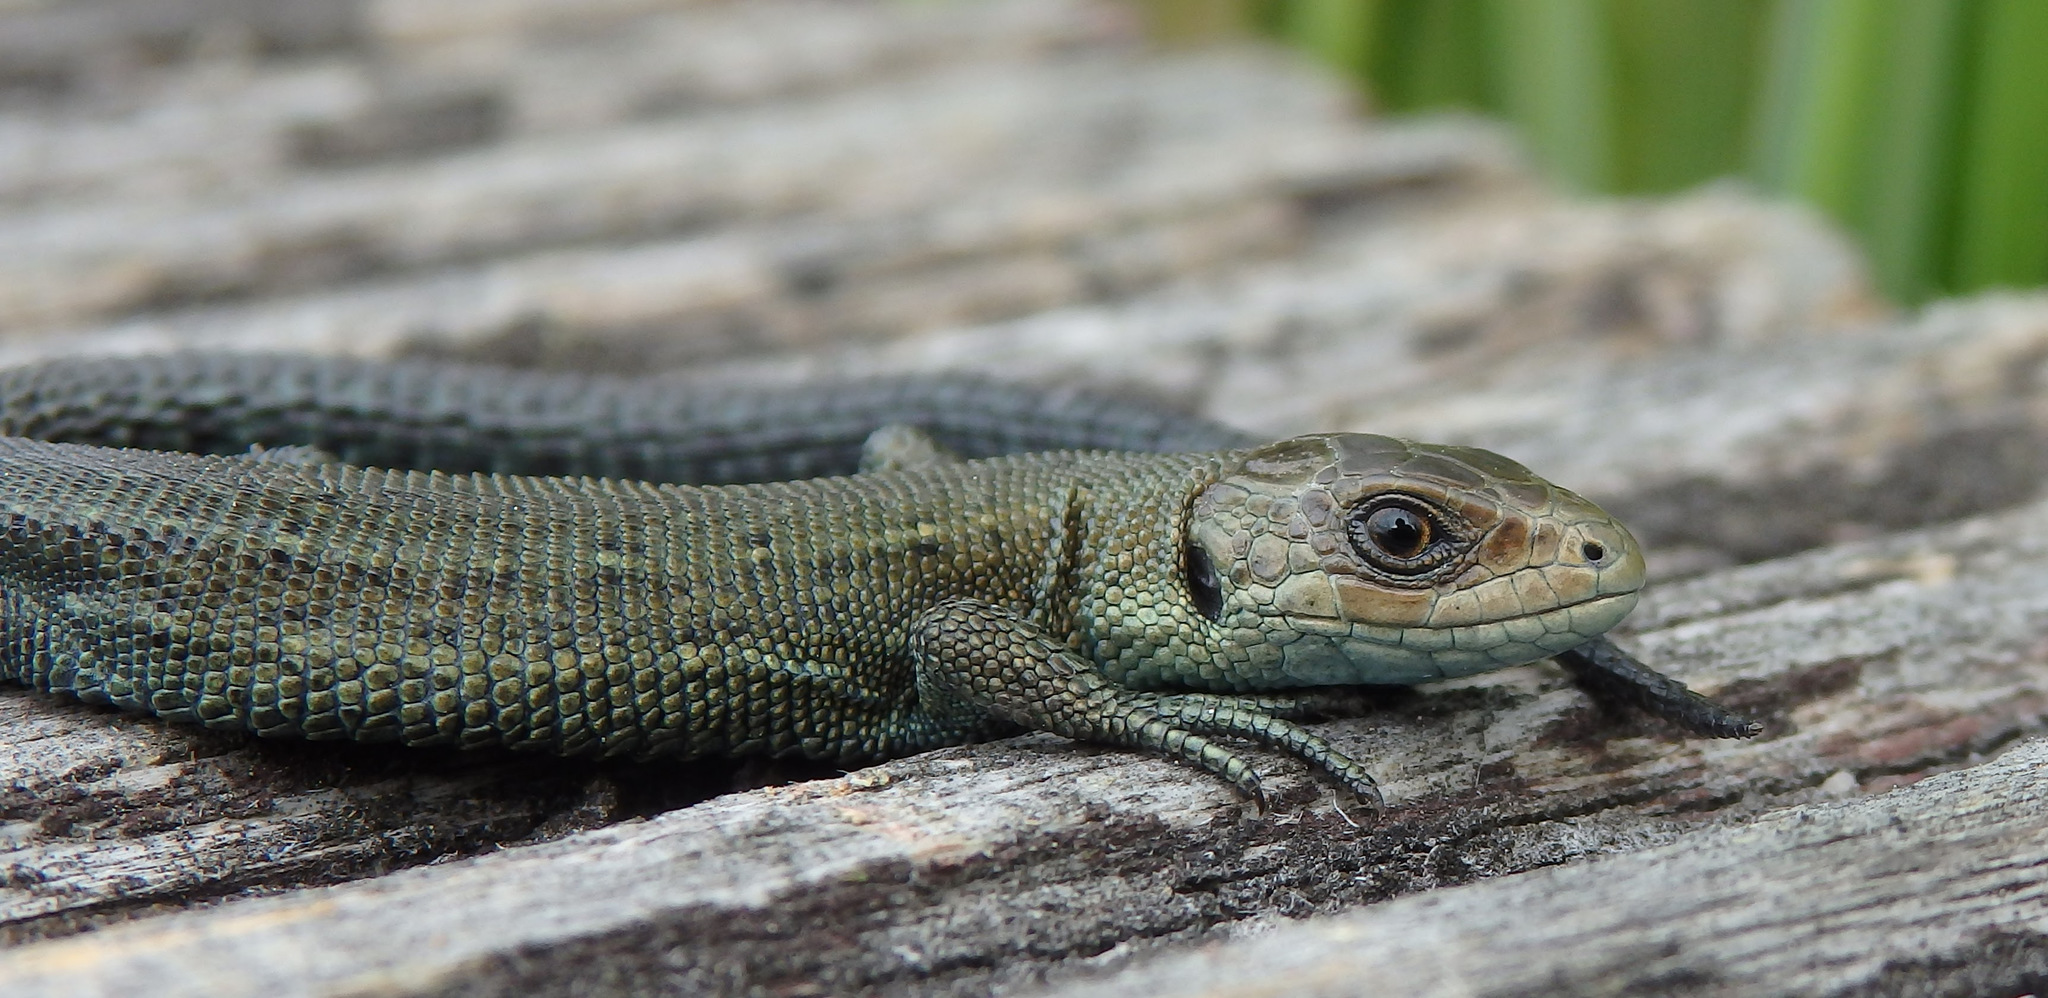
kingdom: Animalia
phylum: Chordata
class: Squamata
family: Lacertidae
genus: Zootoca
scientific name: Zootoca vivipara
